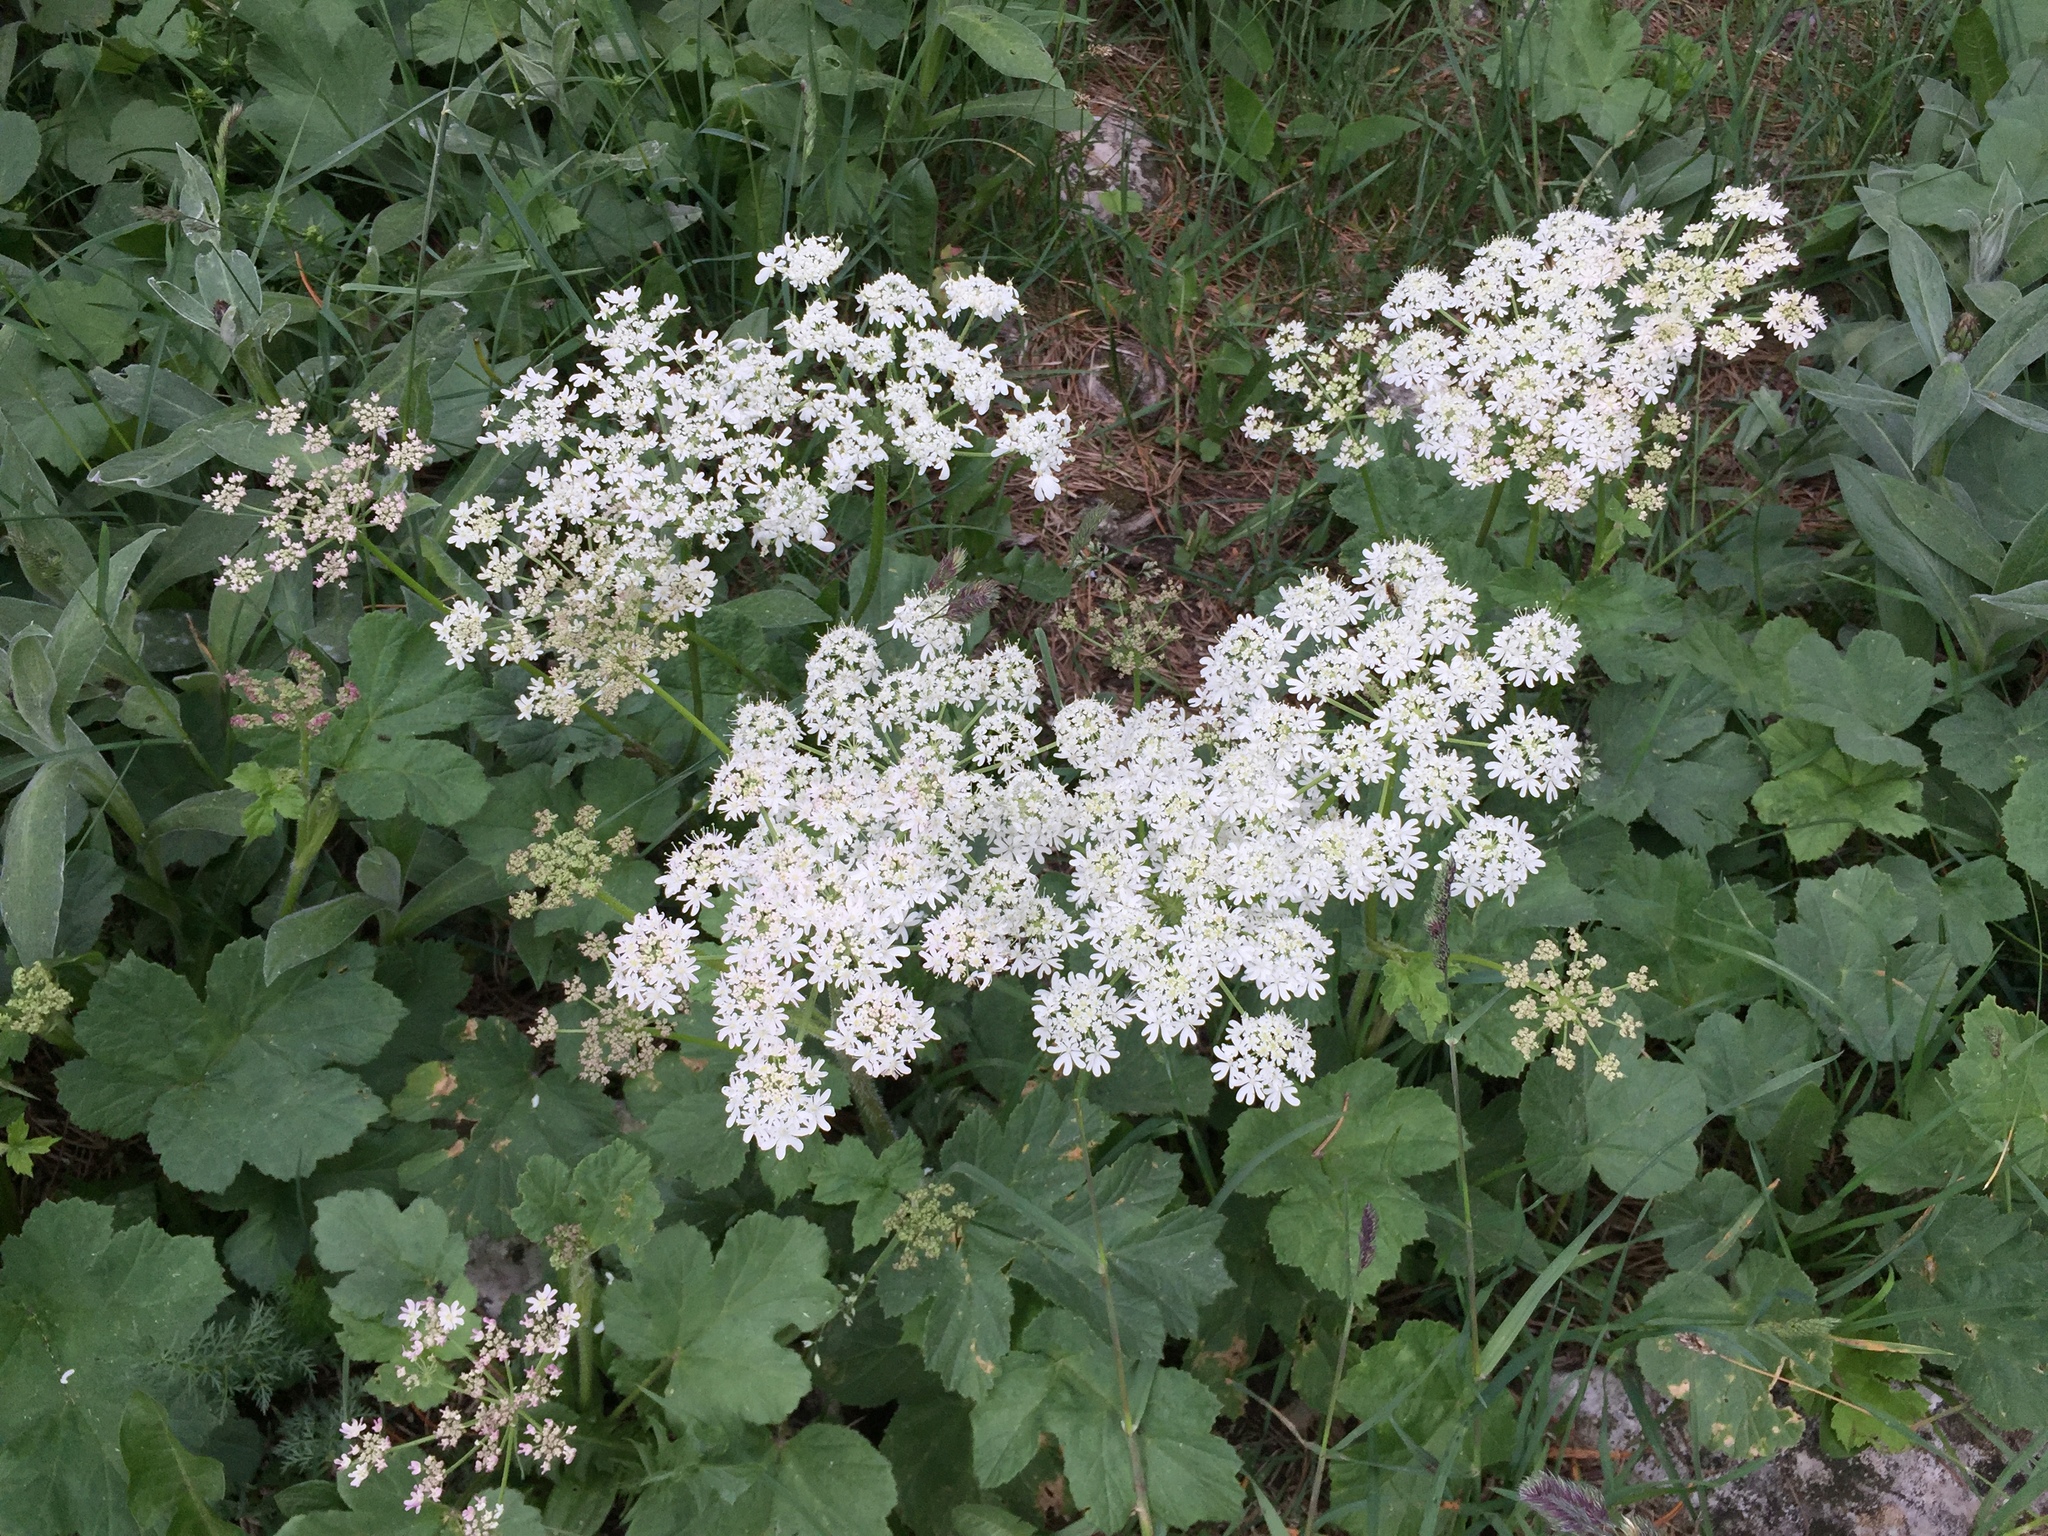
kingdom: Plantae
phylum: Tracheophyta
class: Magnoliopsida
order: Apiales
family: Apiaceae
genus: Heracleum
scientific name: Heracleum sphondylium
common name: Hogweed
